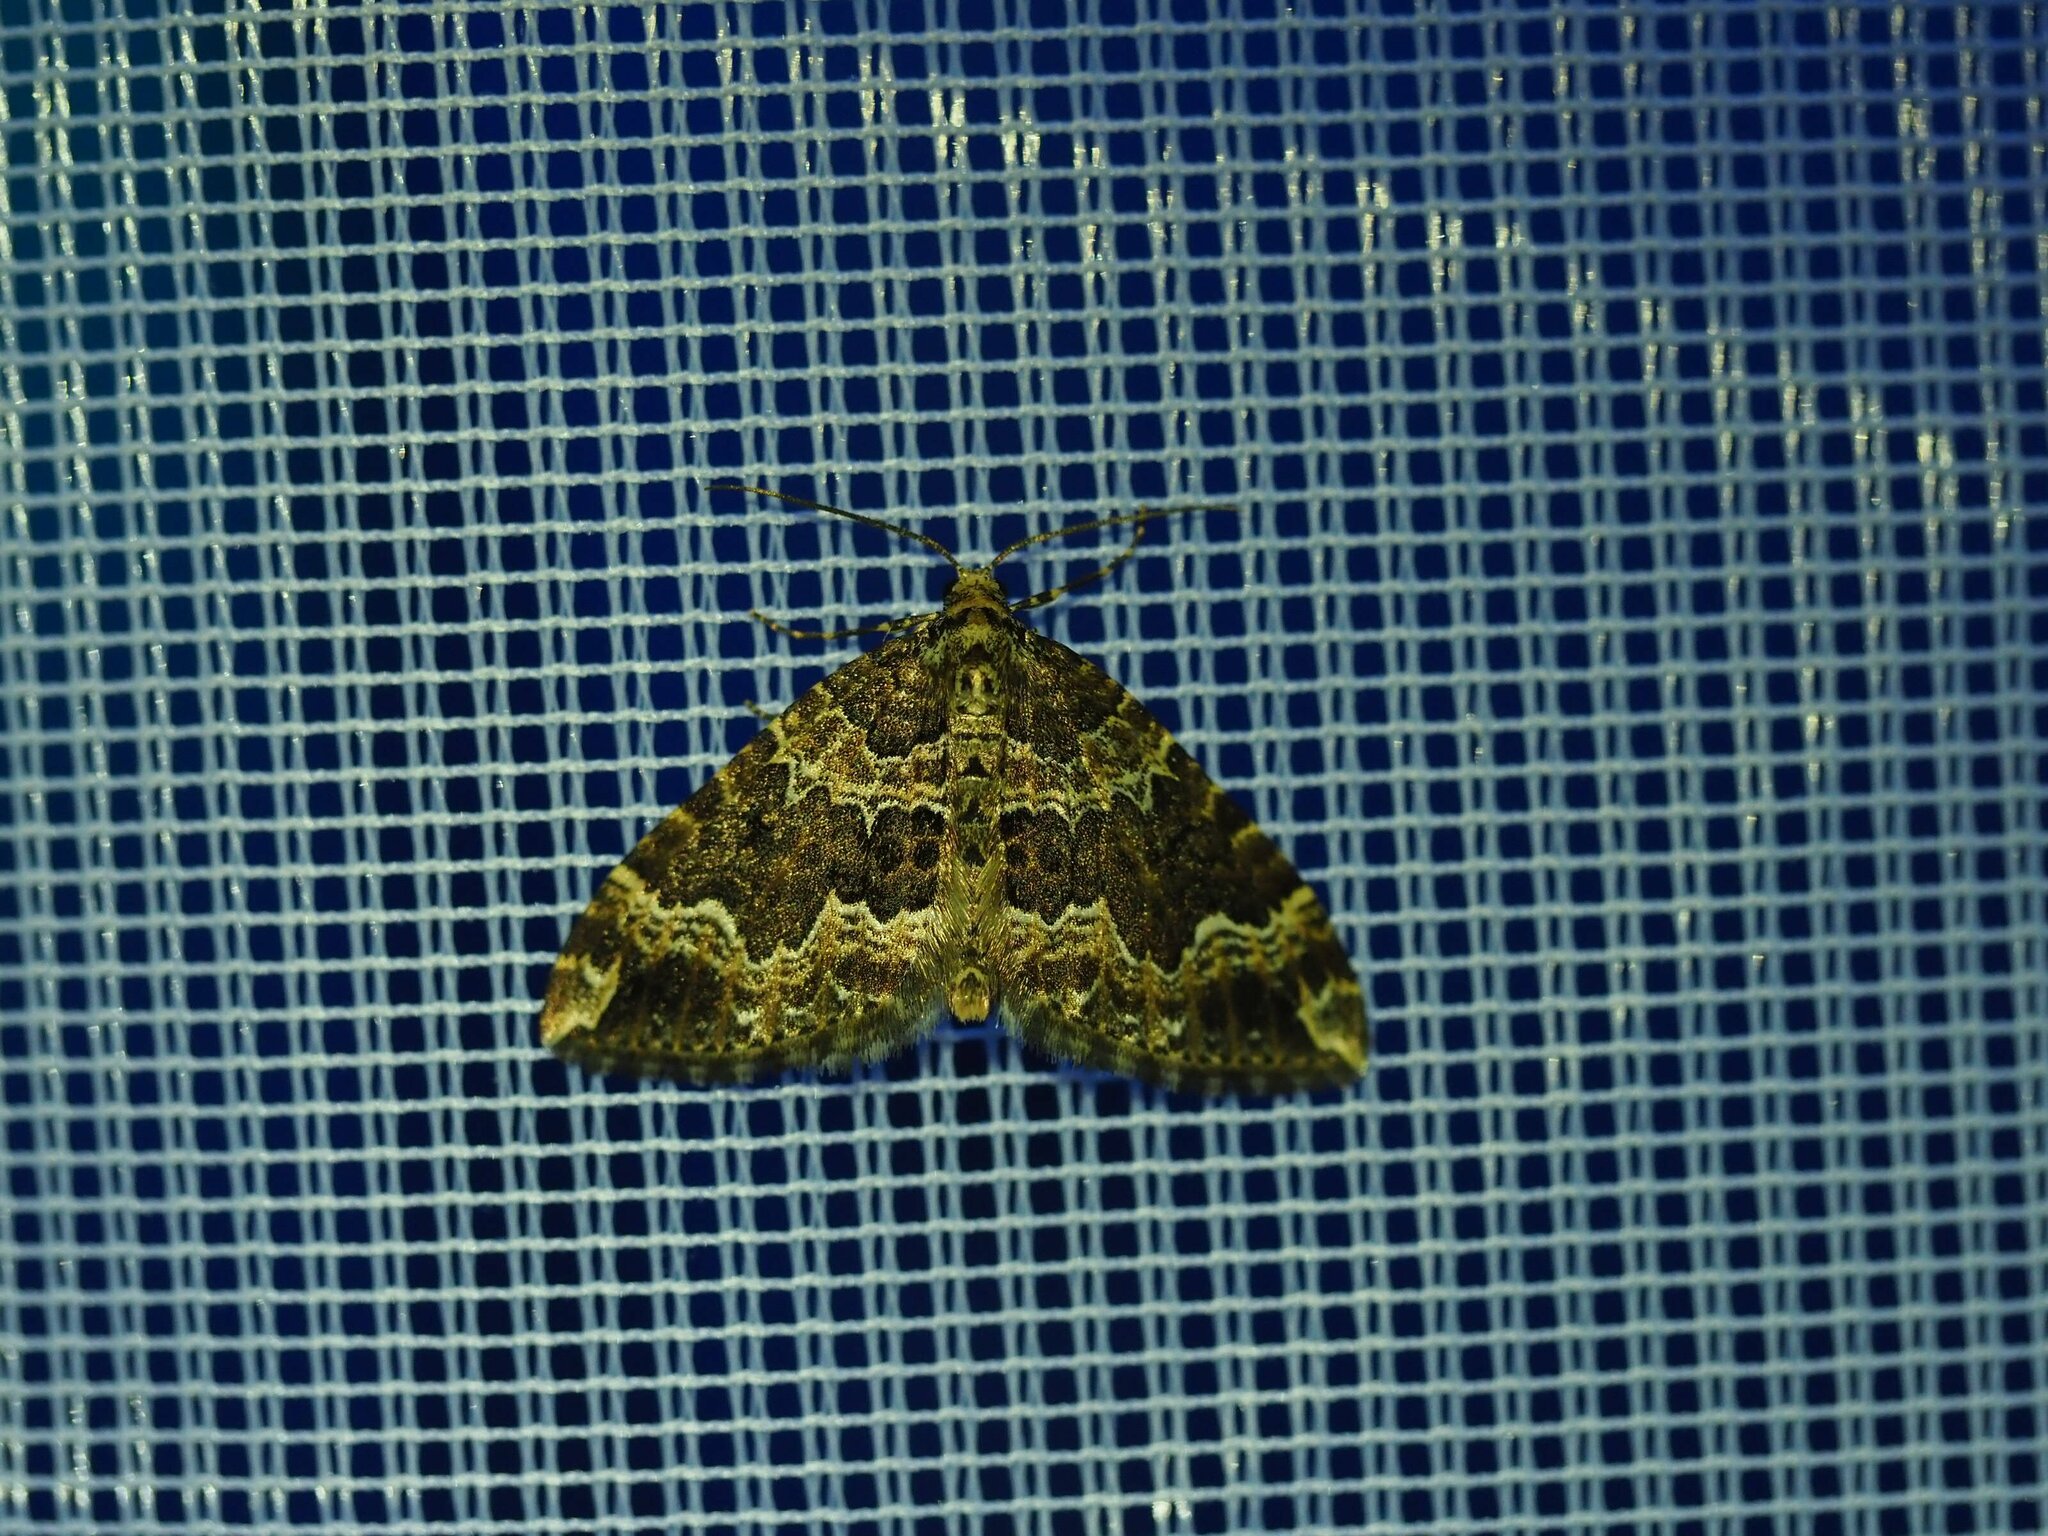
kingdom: Animalia
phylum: Arthropoda
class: Insecta
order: Lepidoptera
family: Geometridae
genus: Lampropteryx
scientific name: Lampropteryx suffumata
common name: Water carpet
